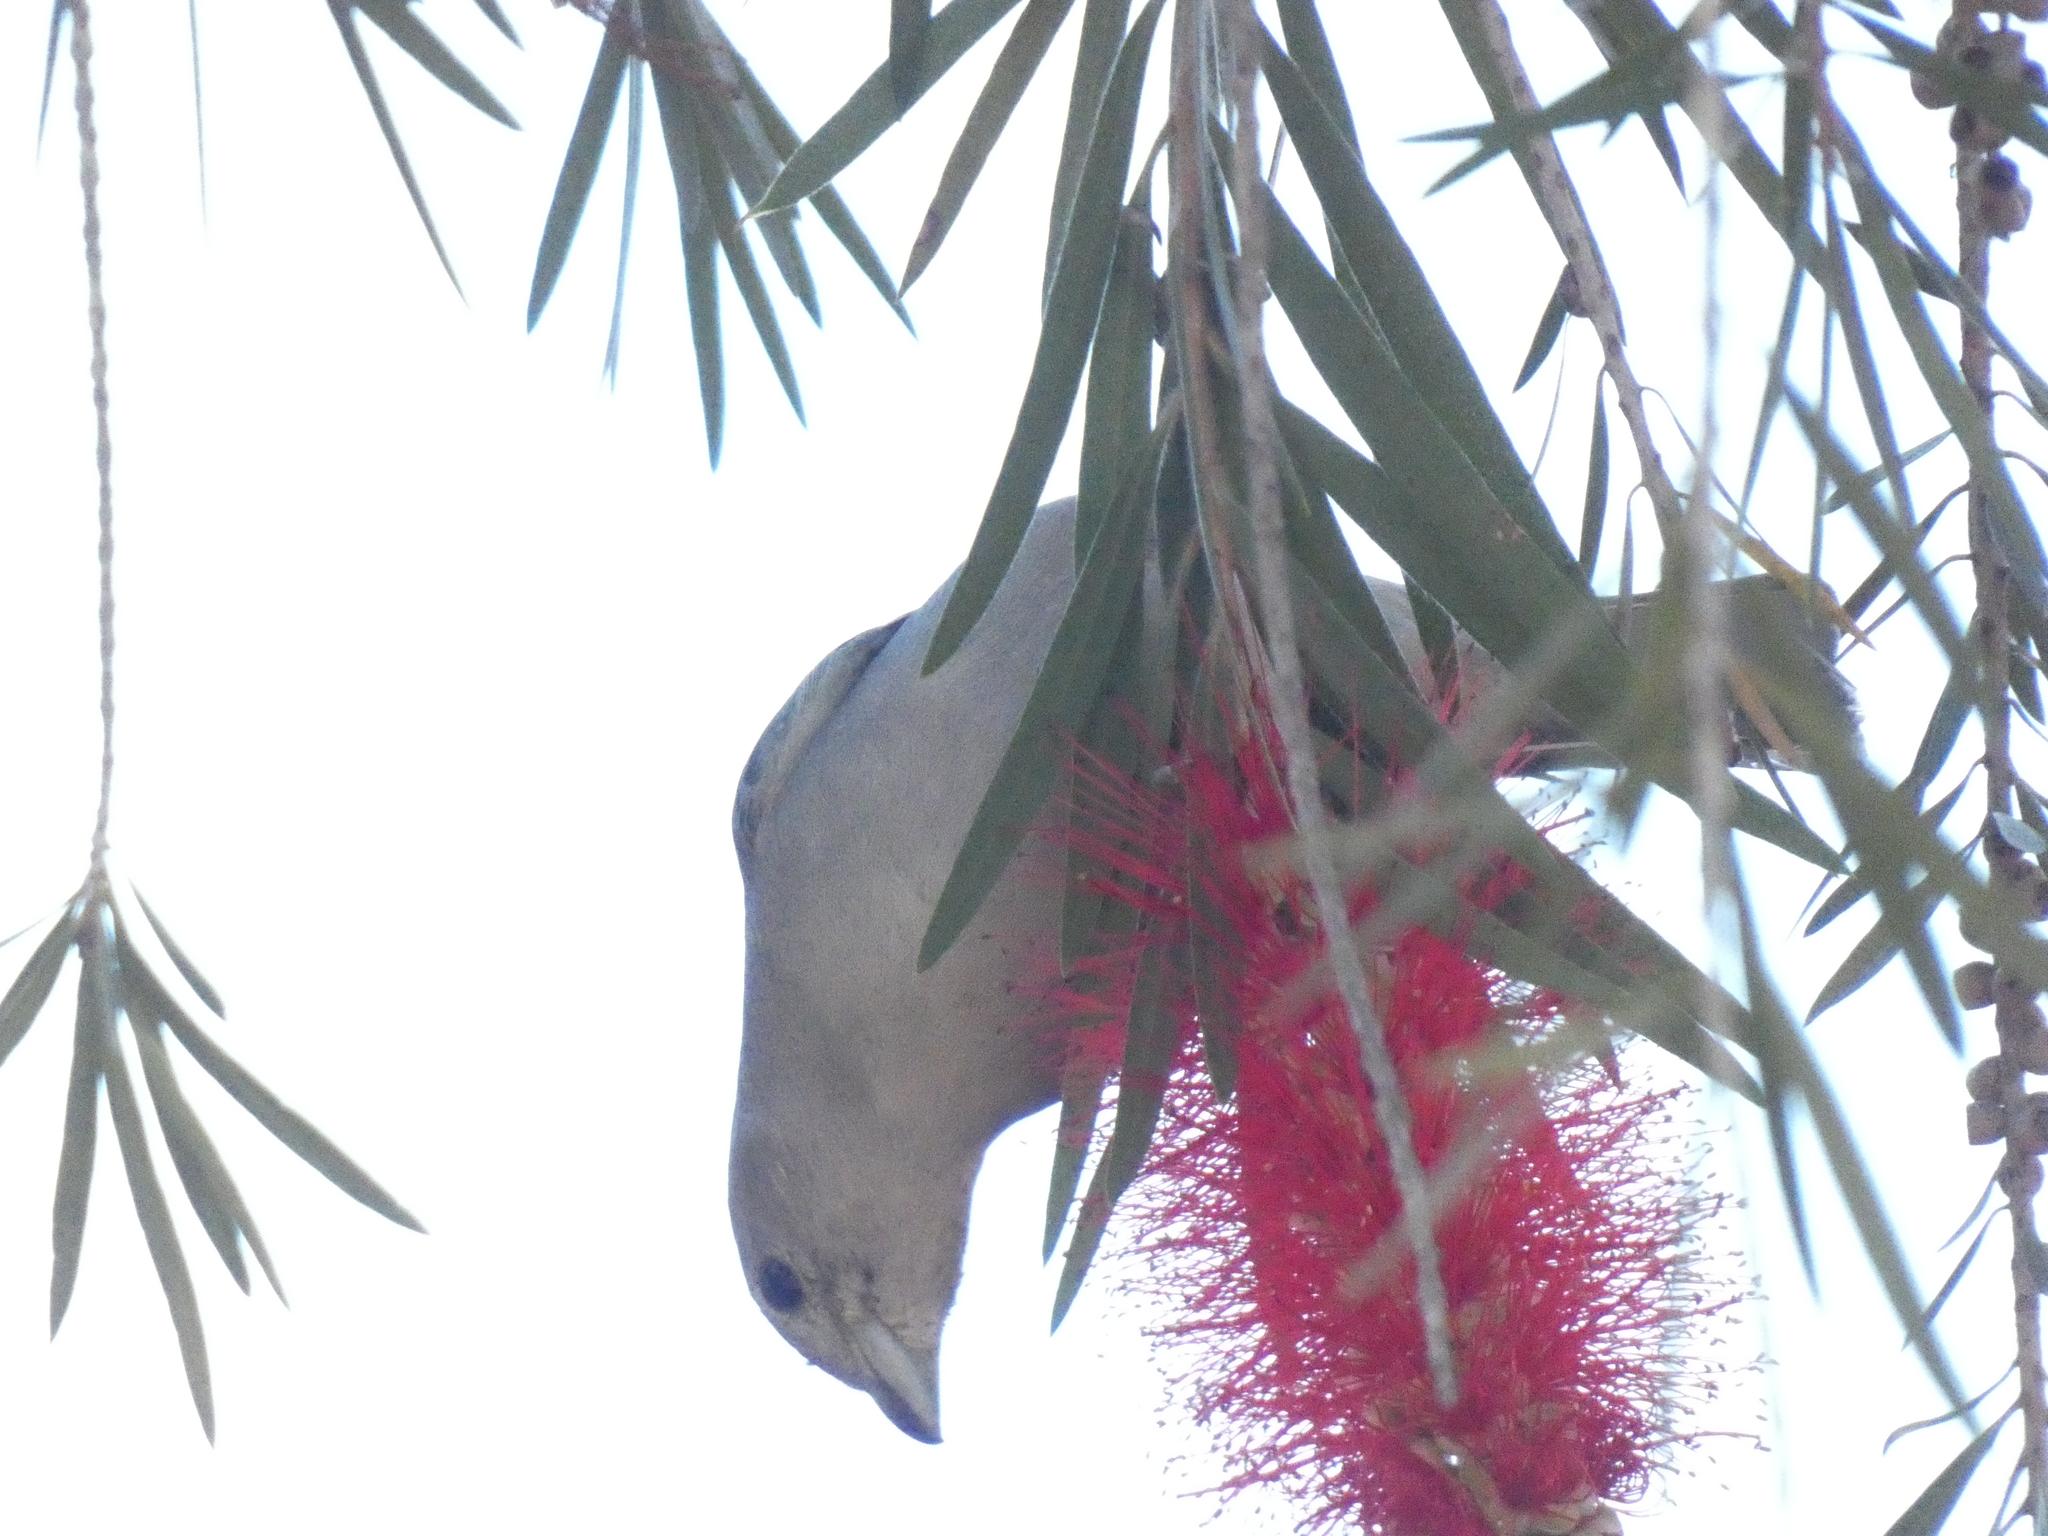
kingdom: Animalia
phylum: Chordata
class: Aves
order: Passeriformes
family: Thraupidae
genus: Thraupis
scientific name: Thraupis sayaca
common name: Sayaca tanager
